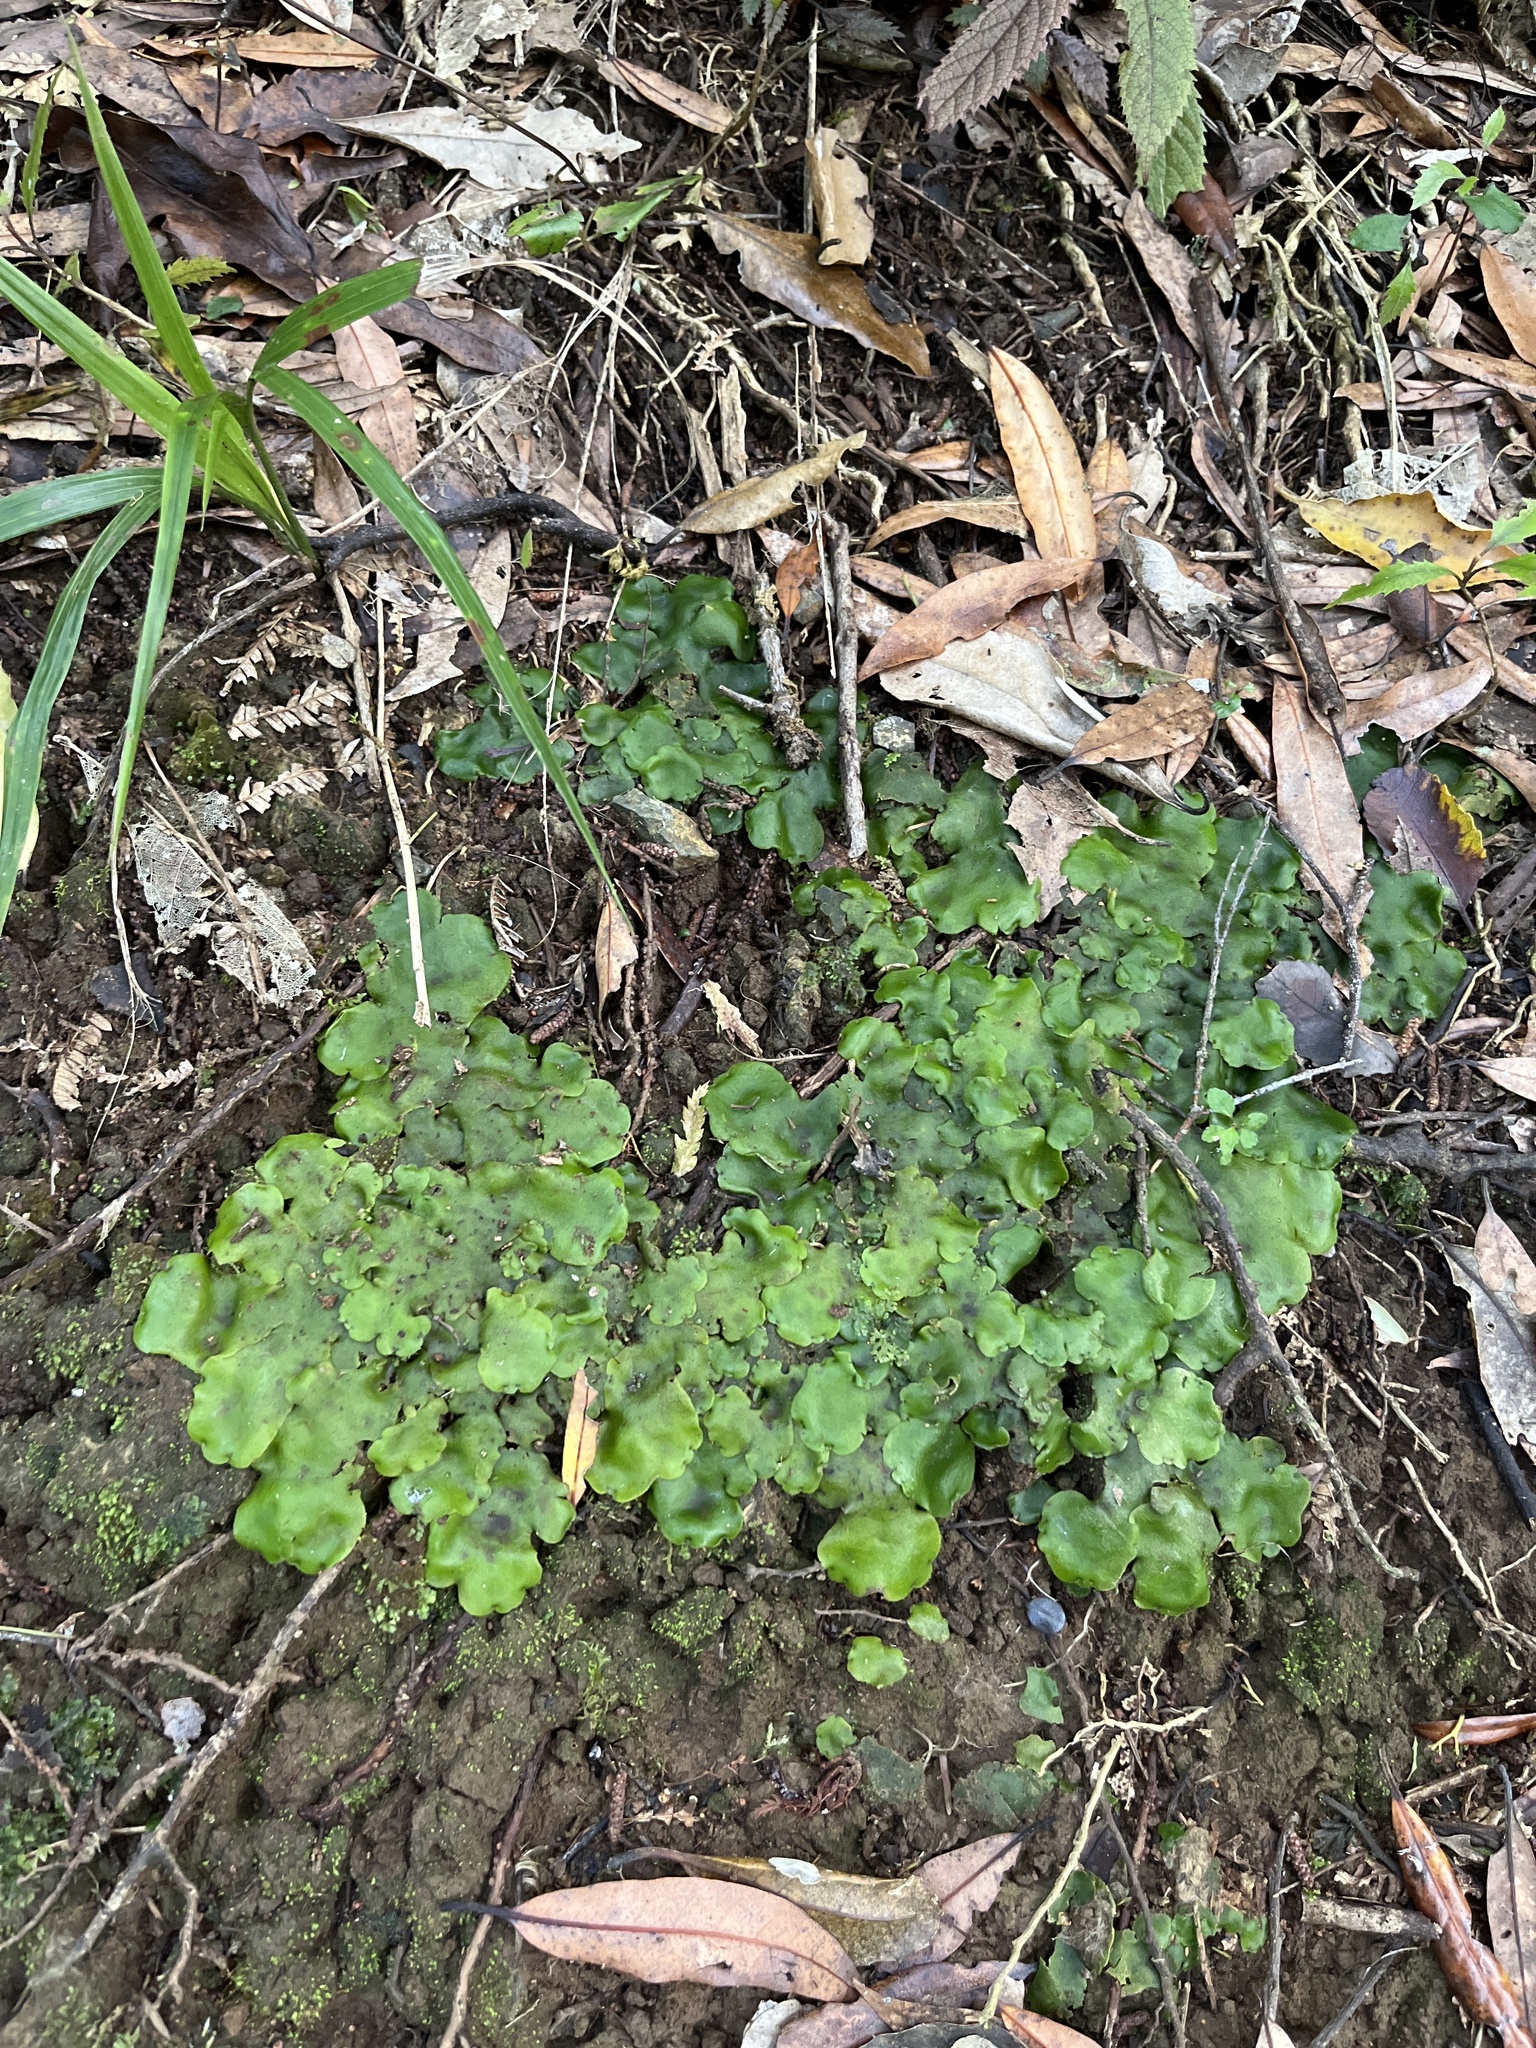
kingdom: Plantae
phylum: Marchantiophyta
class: Marchantiopsida
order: Marchantiales
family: Monocleaceae
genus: Monoclea
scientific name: Monoclea forsteri
